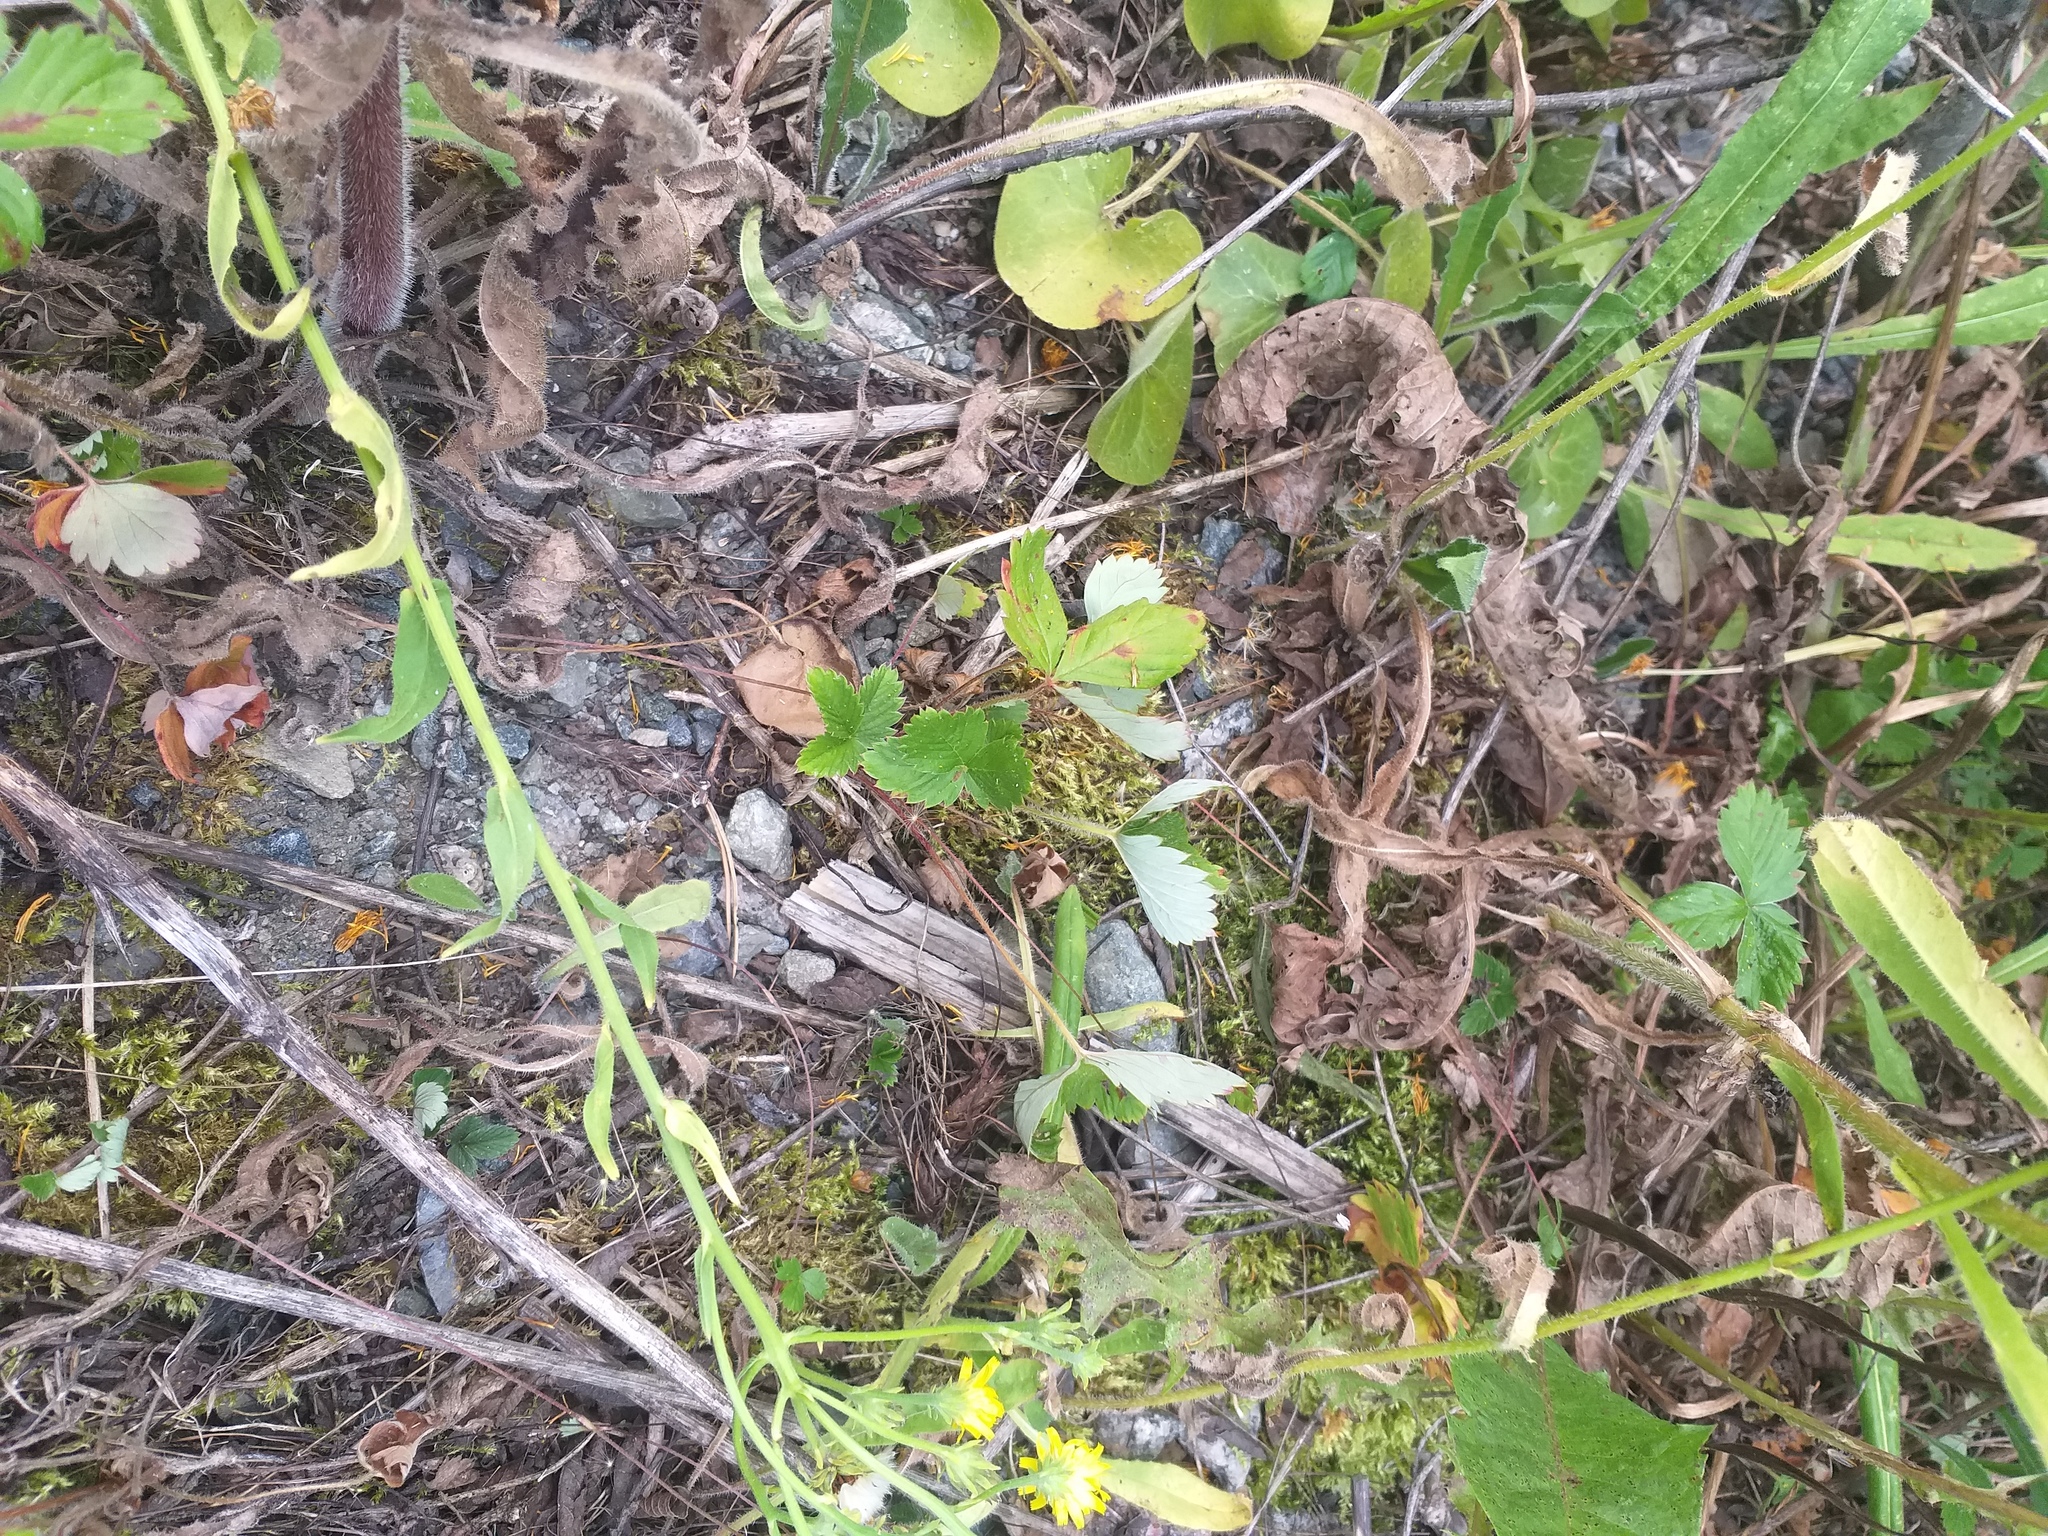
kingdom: Plantae
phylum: Tracheophyta
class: Magnoliopsida
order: Rosales
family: Rosaceae
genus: Fragaria
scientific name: Fragaria ananassa
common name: Garden strawberry
